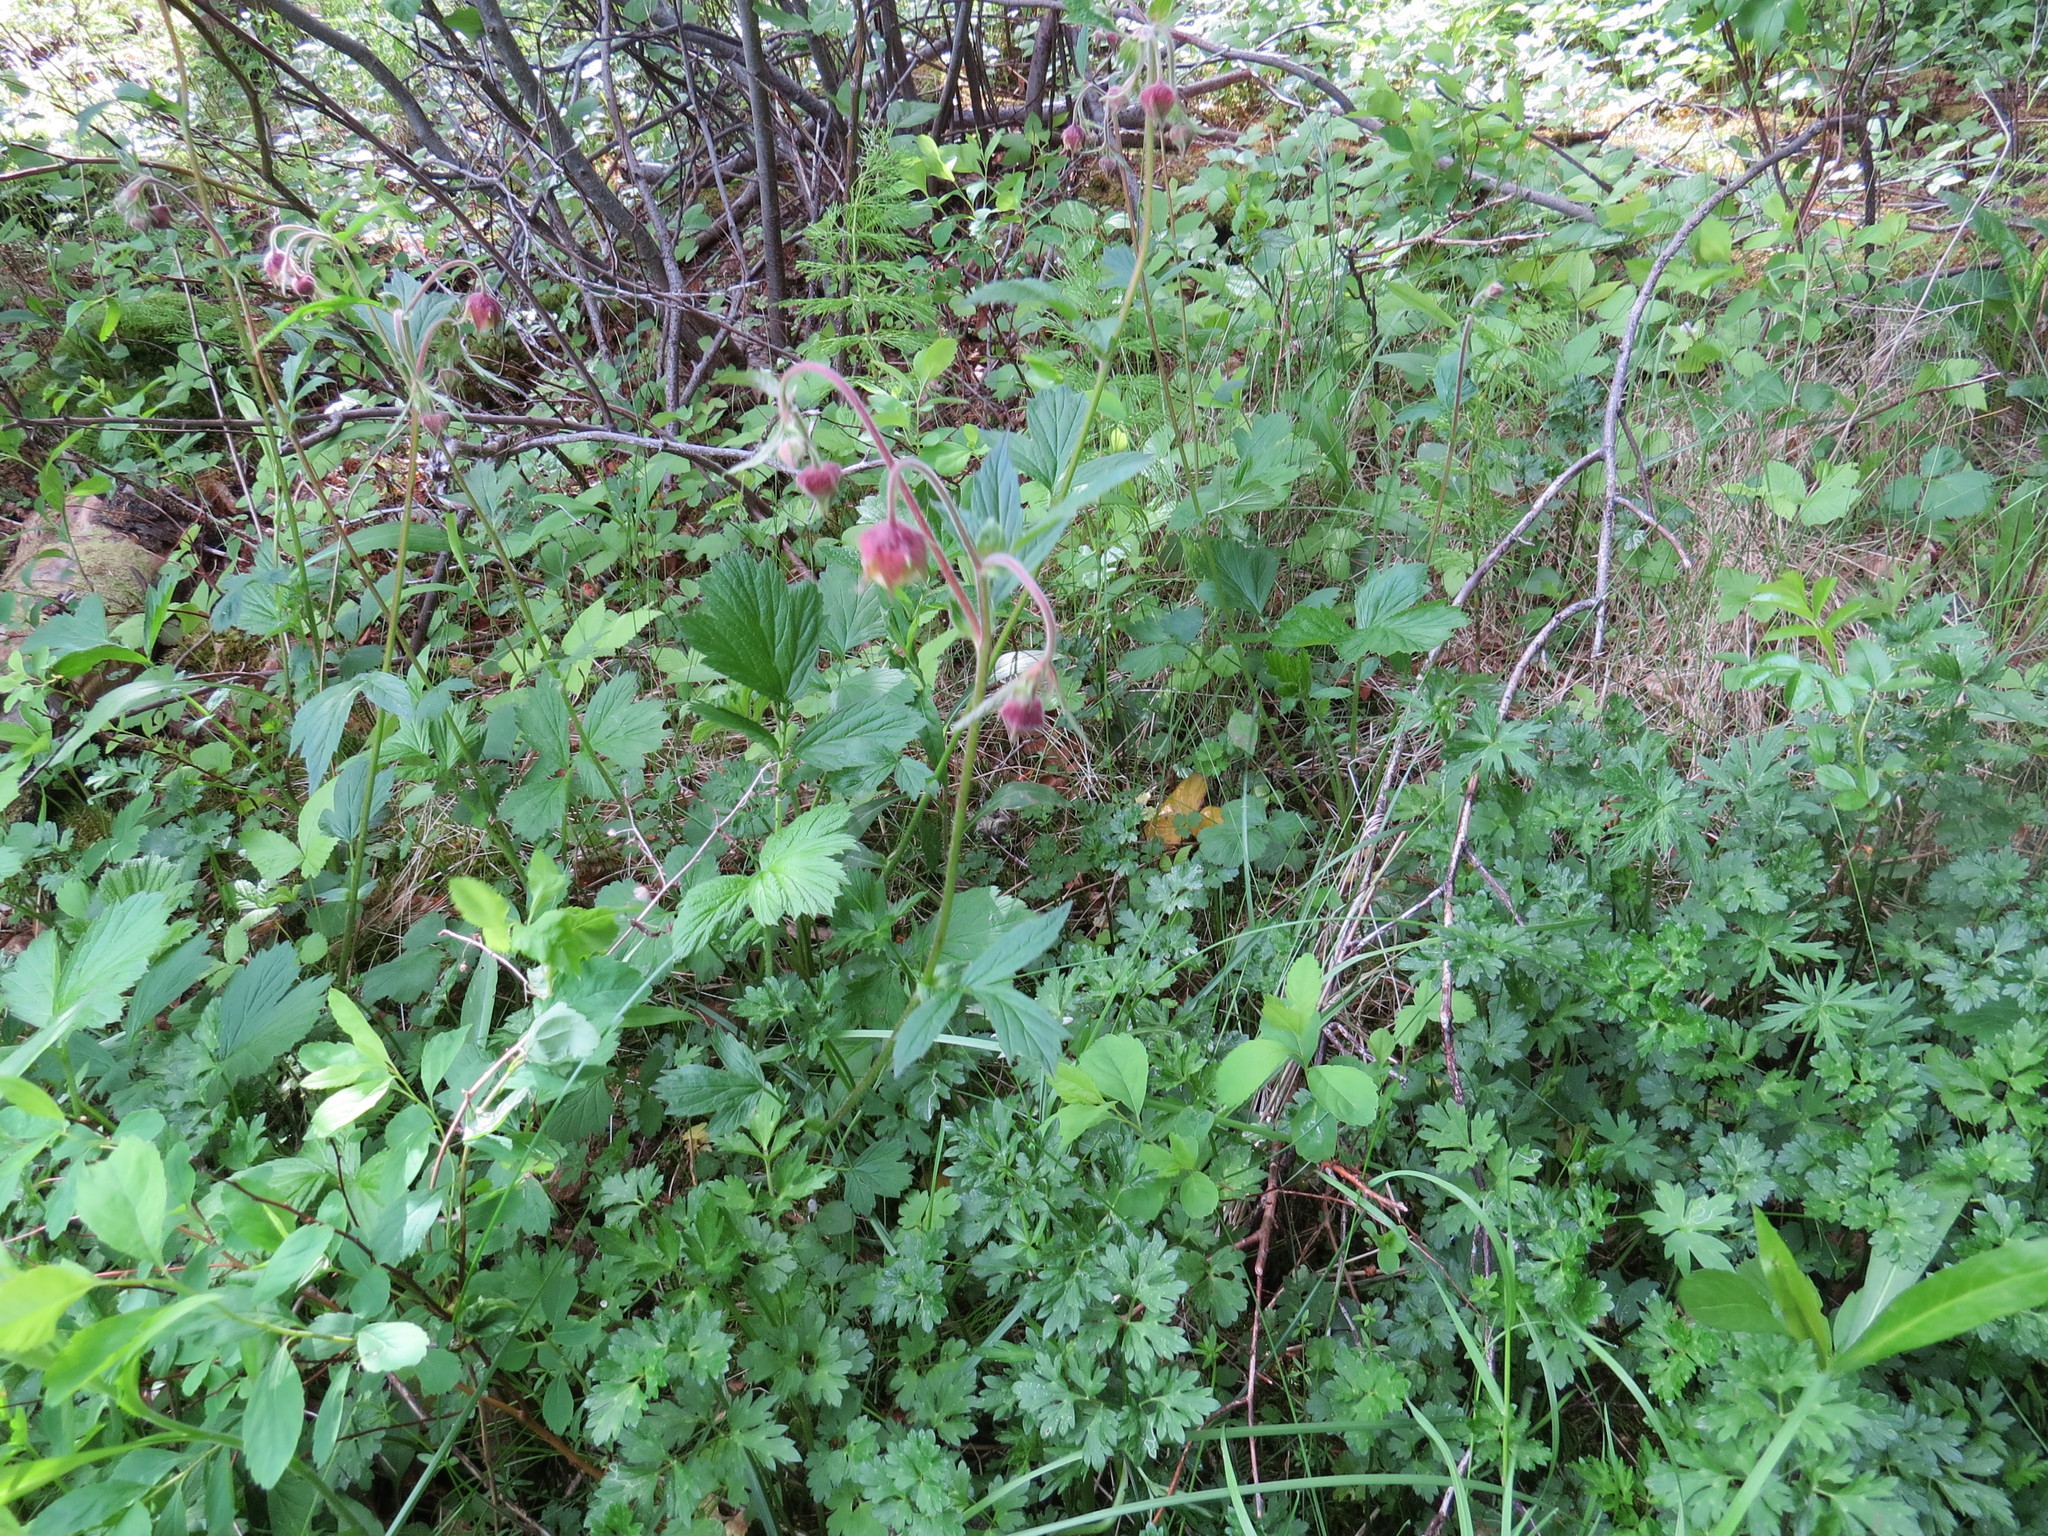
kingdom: Plantae
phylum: Tracheophyta
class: Magnoliopsida
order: Rosales
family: Rosaceae
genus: Geum
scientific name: Geum rivale
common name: Water avens
